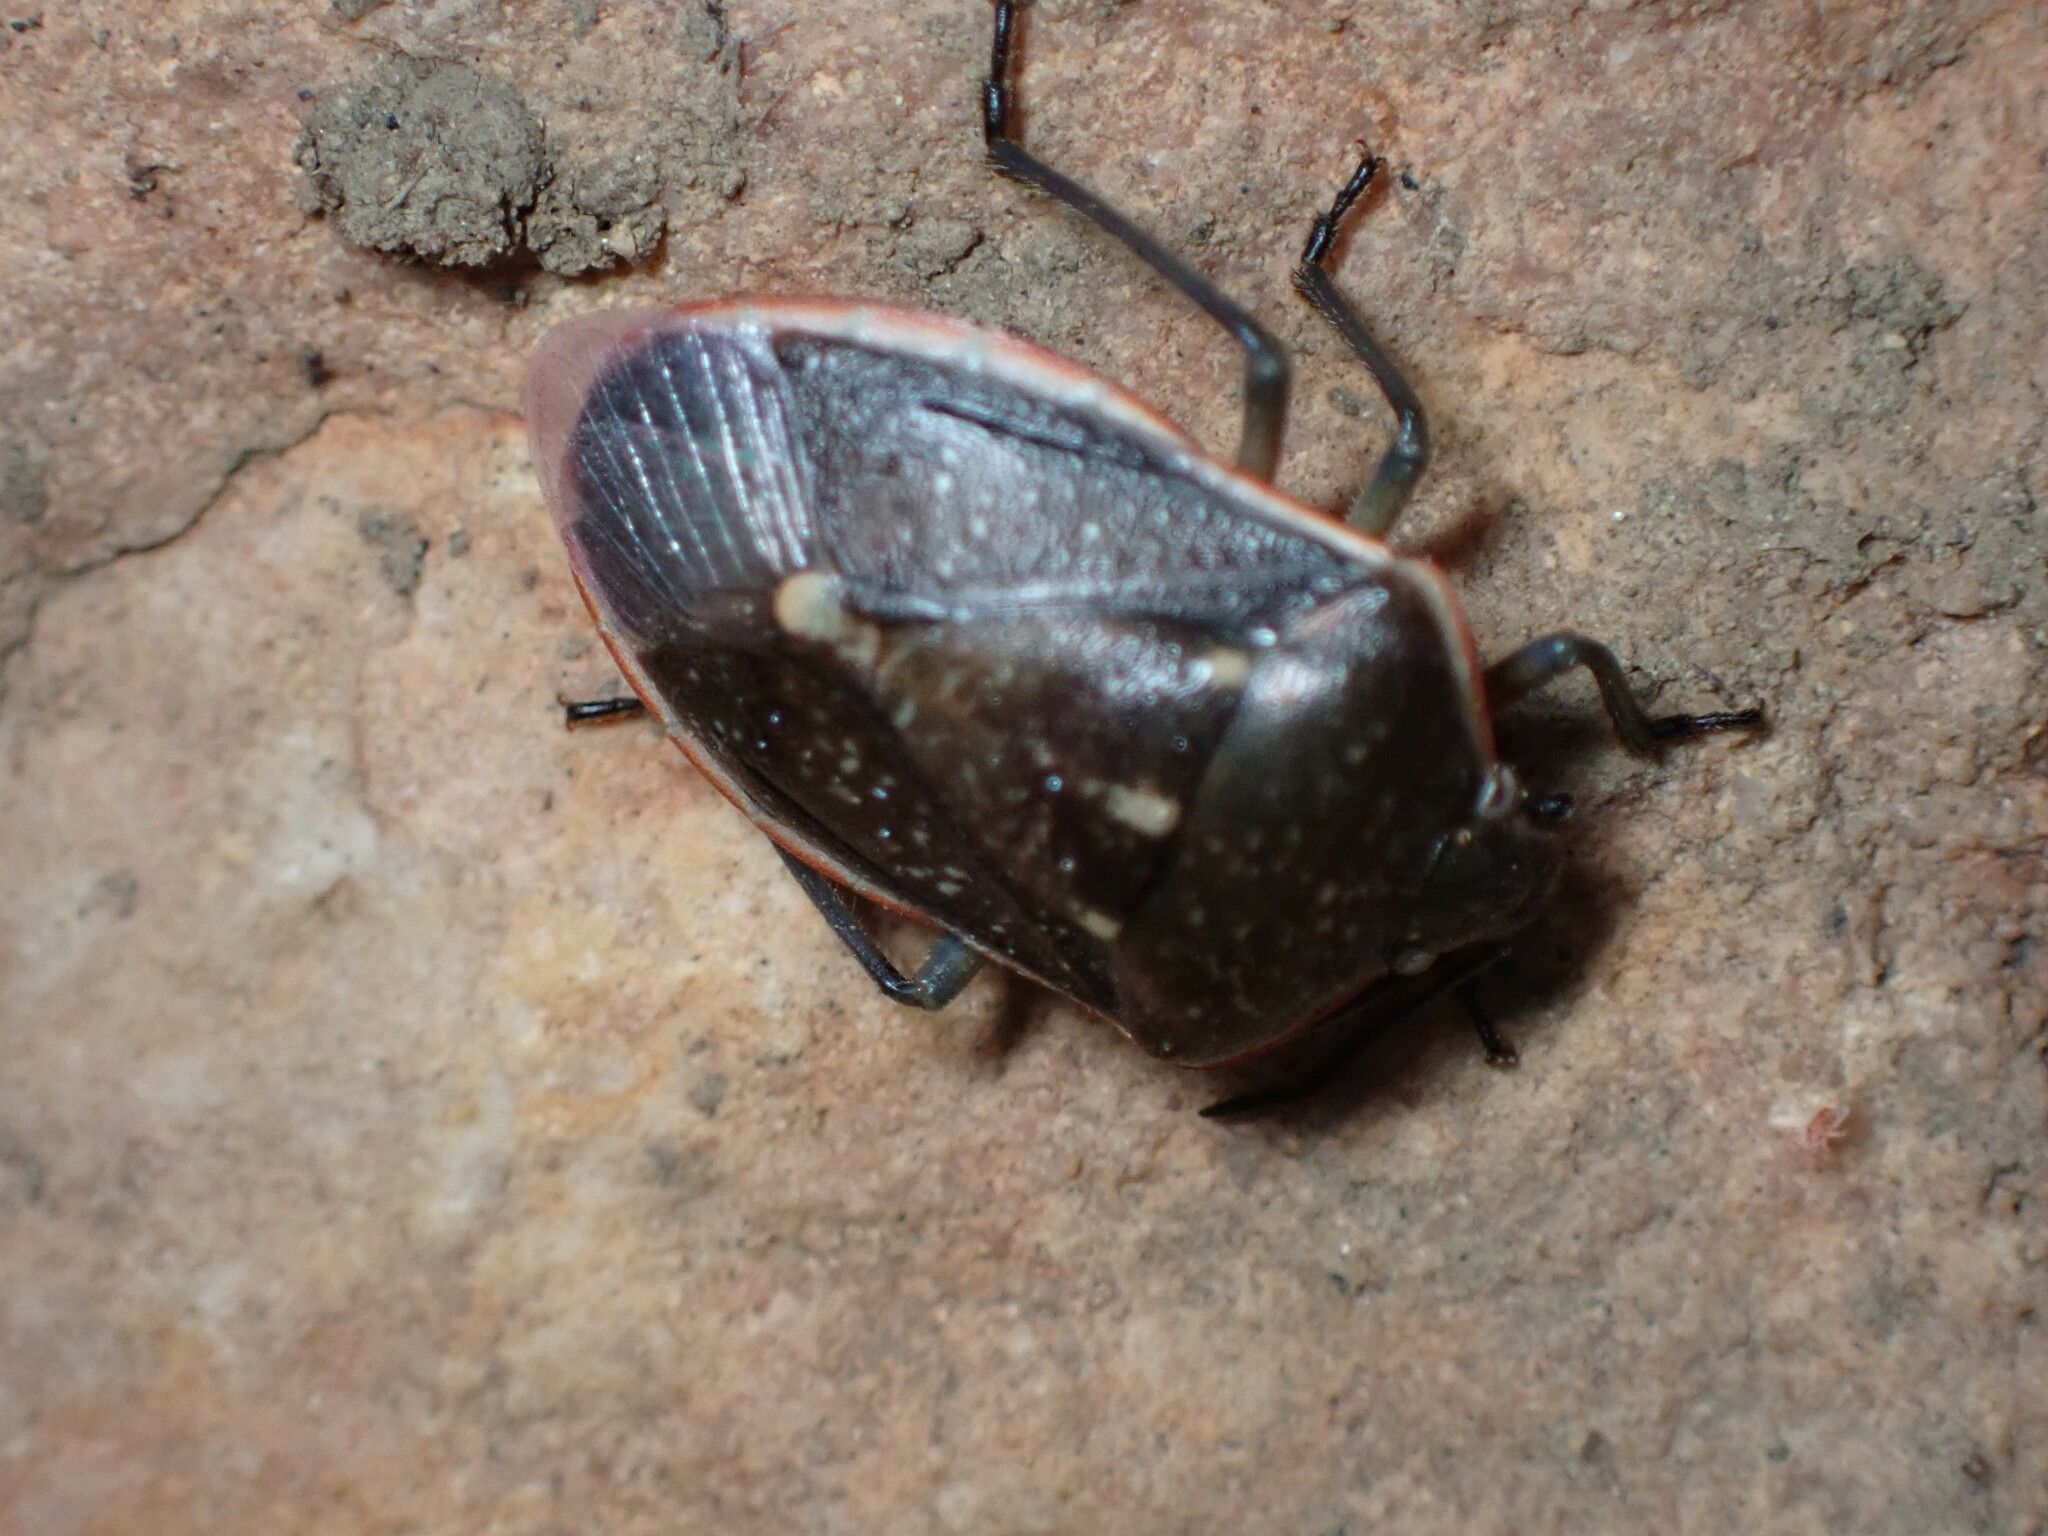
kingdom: Animalia
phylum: Arthropoda
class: Insecta
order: Hemiptera
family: Pentatomidae
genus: Chlorochroa
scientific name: Chlorochroa sayi
